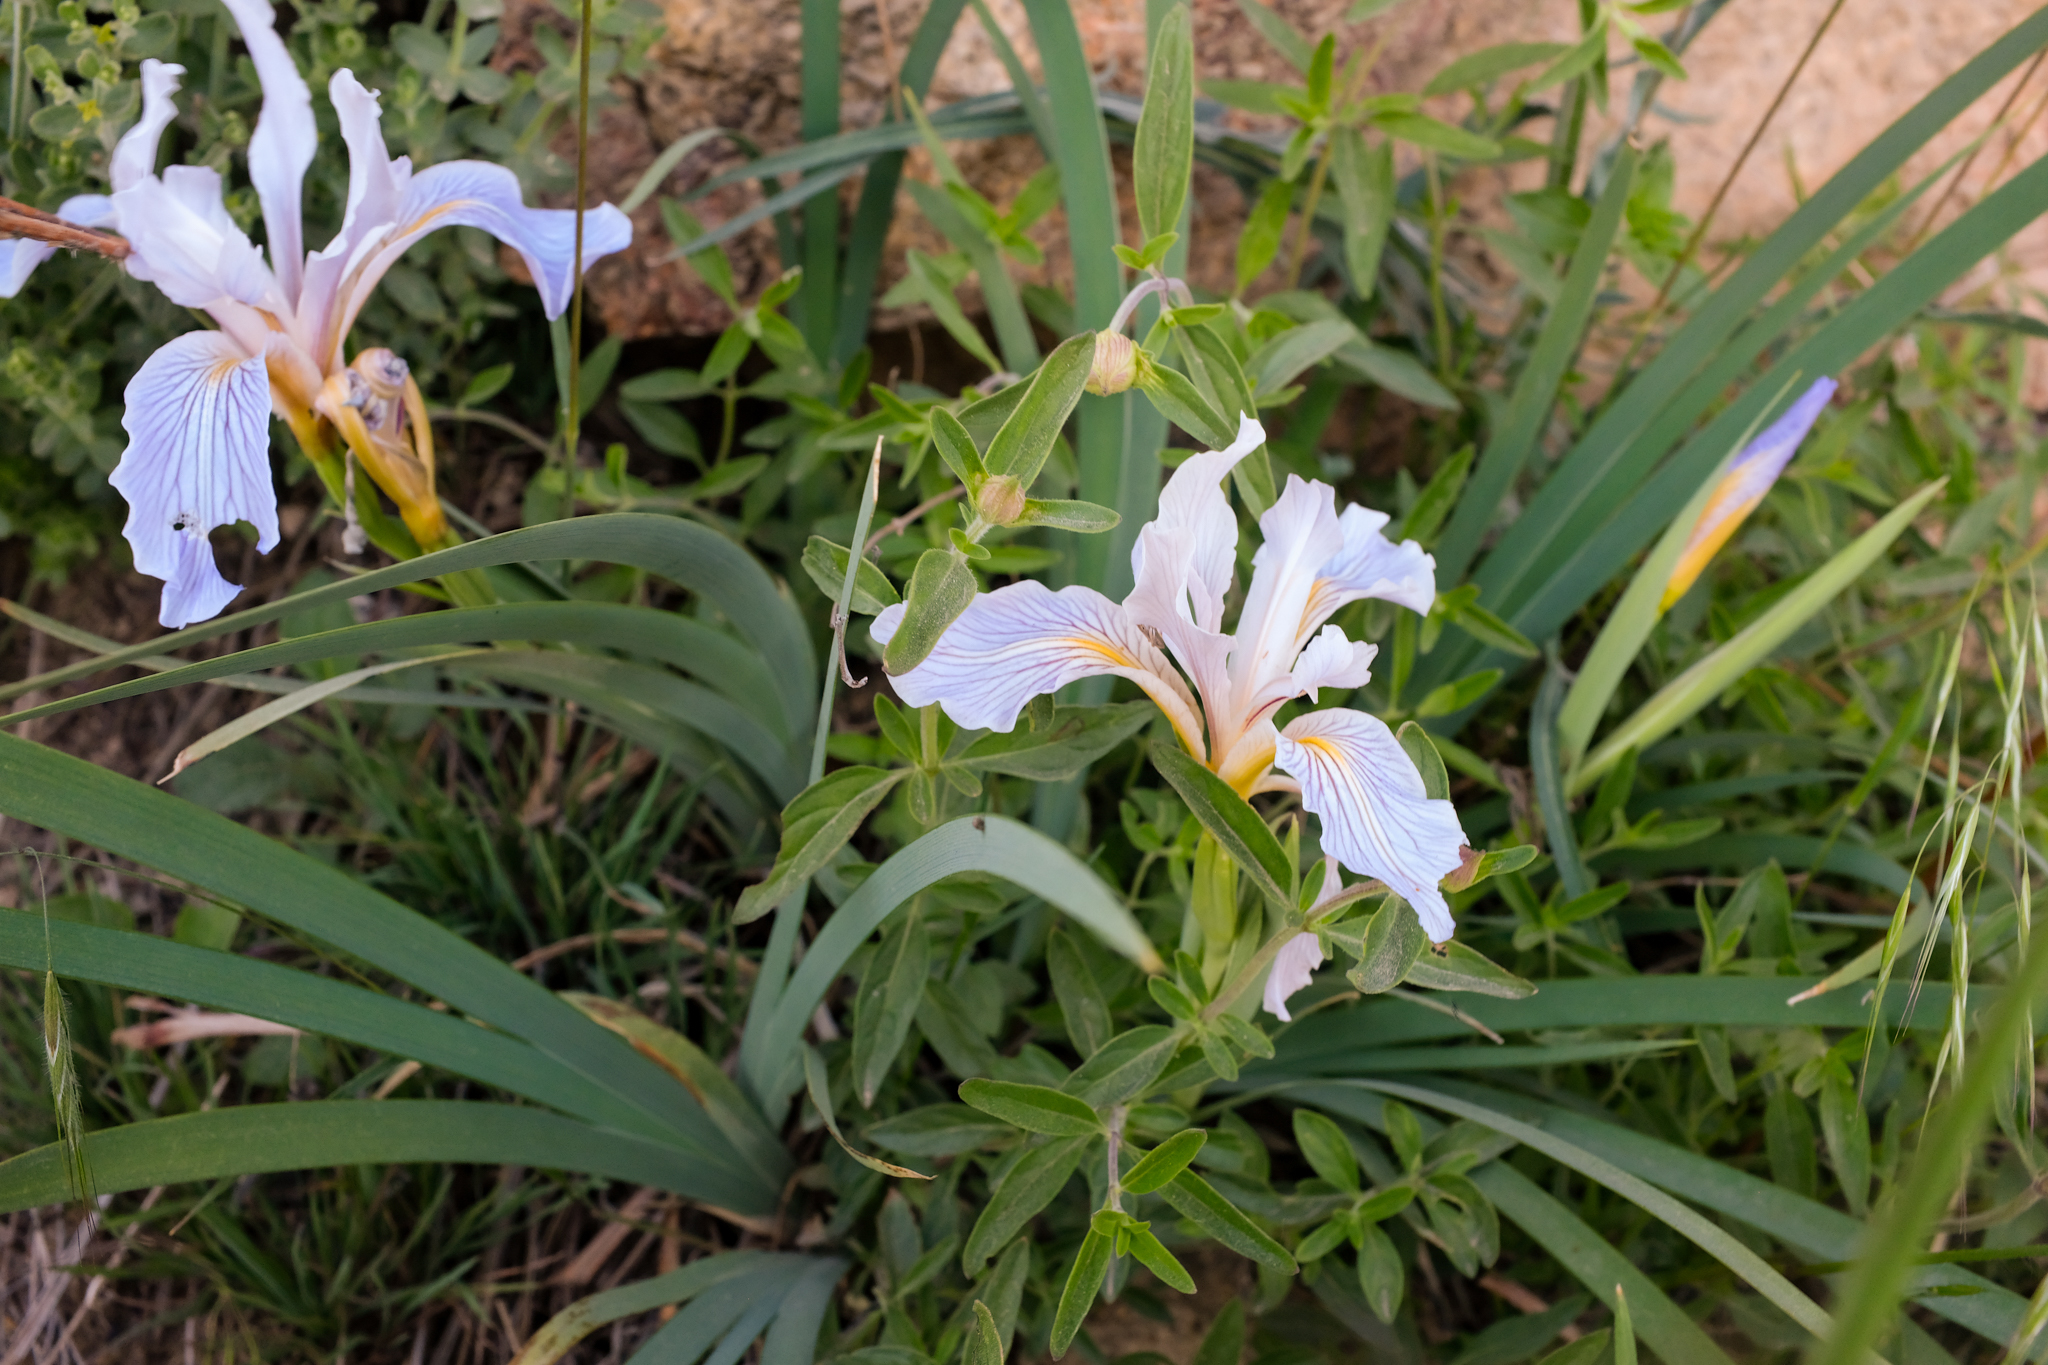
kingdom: Plantae
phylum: Tracheophyta
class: Liliopsida
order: Asparagales
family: Iridaceae
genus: Iris
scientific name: Iris hartwegii
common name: Sierra iris
